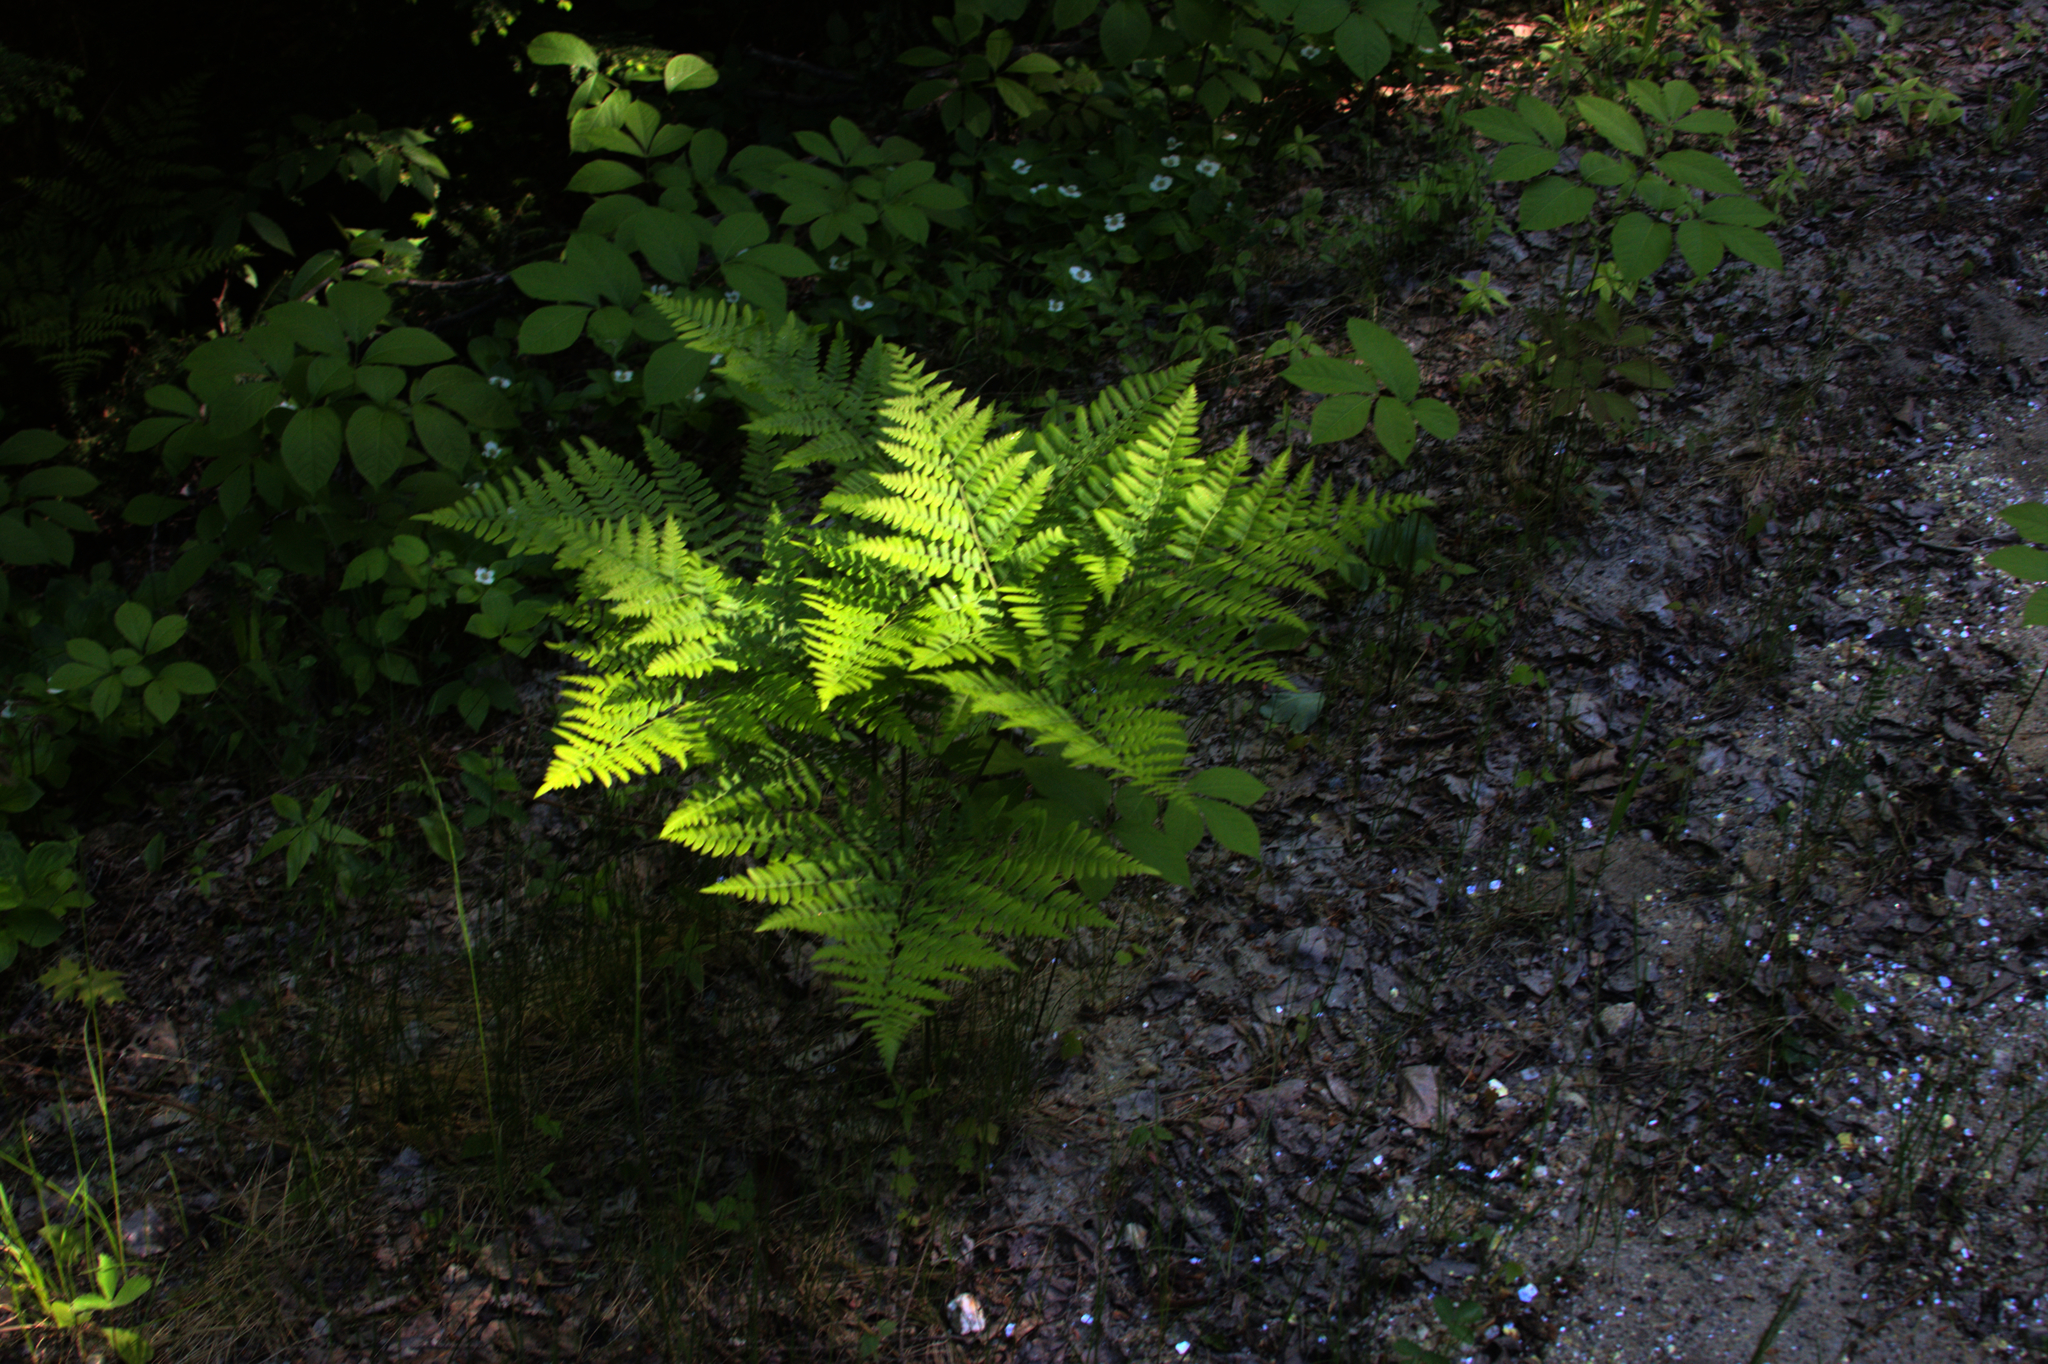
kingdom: Plantae
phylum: Tracheophyta
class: Polypodiopsida
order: Polypodiales
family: Dennstaedtiaceae
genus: Pteridium
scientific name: Pteridium aquilinum
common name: Bracken
